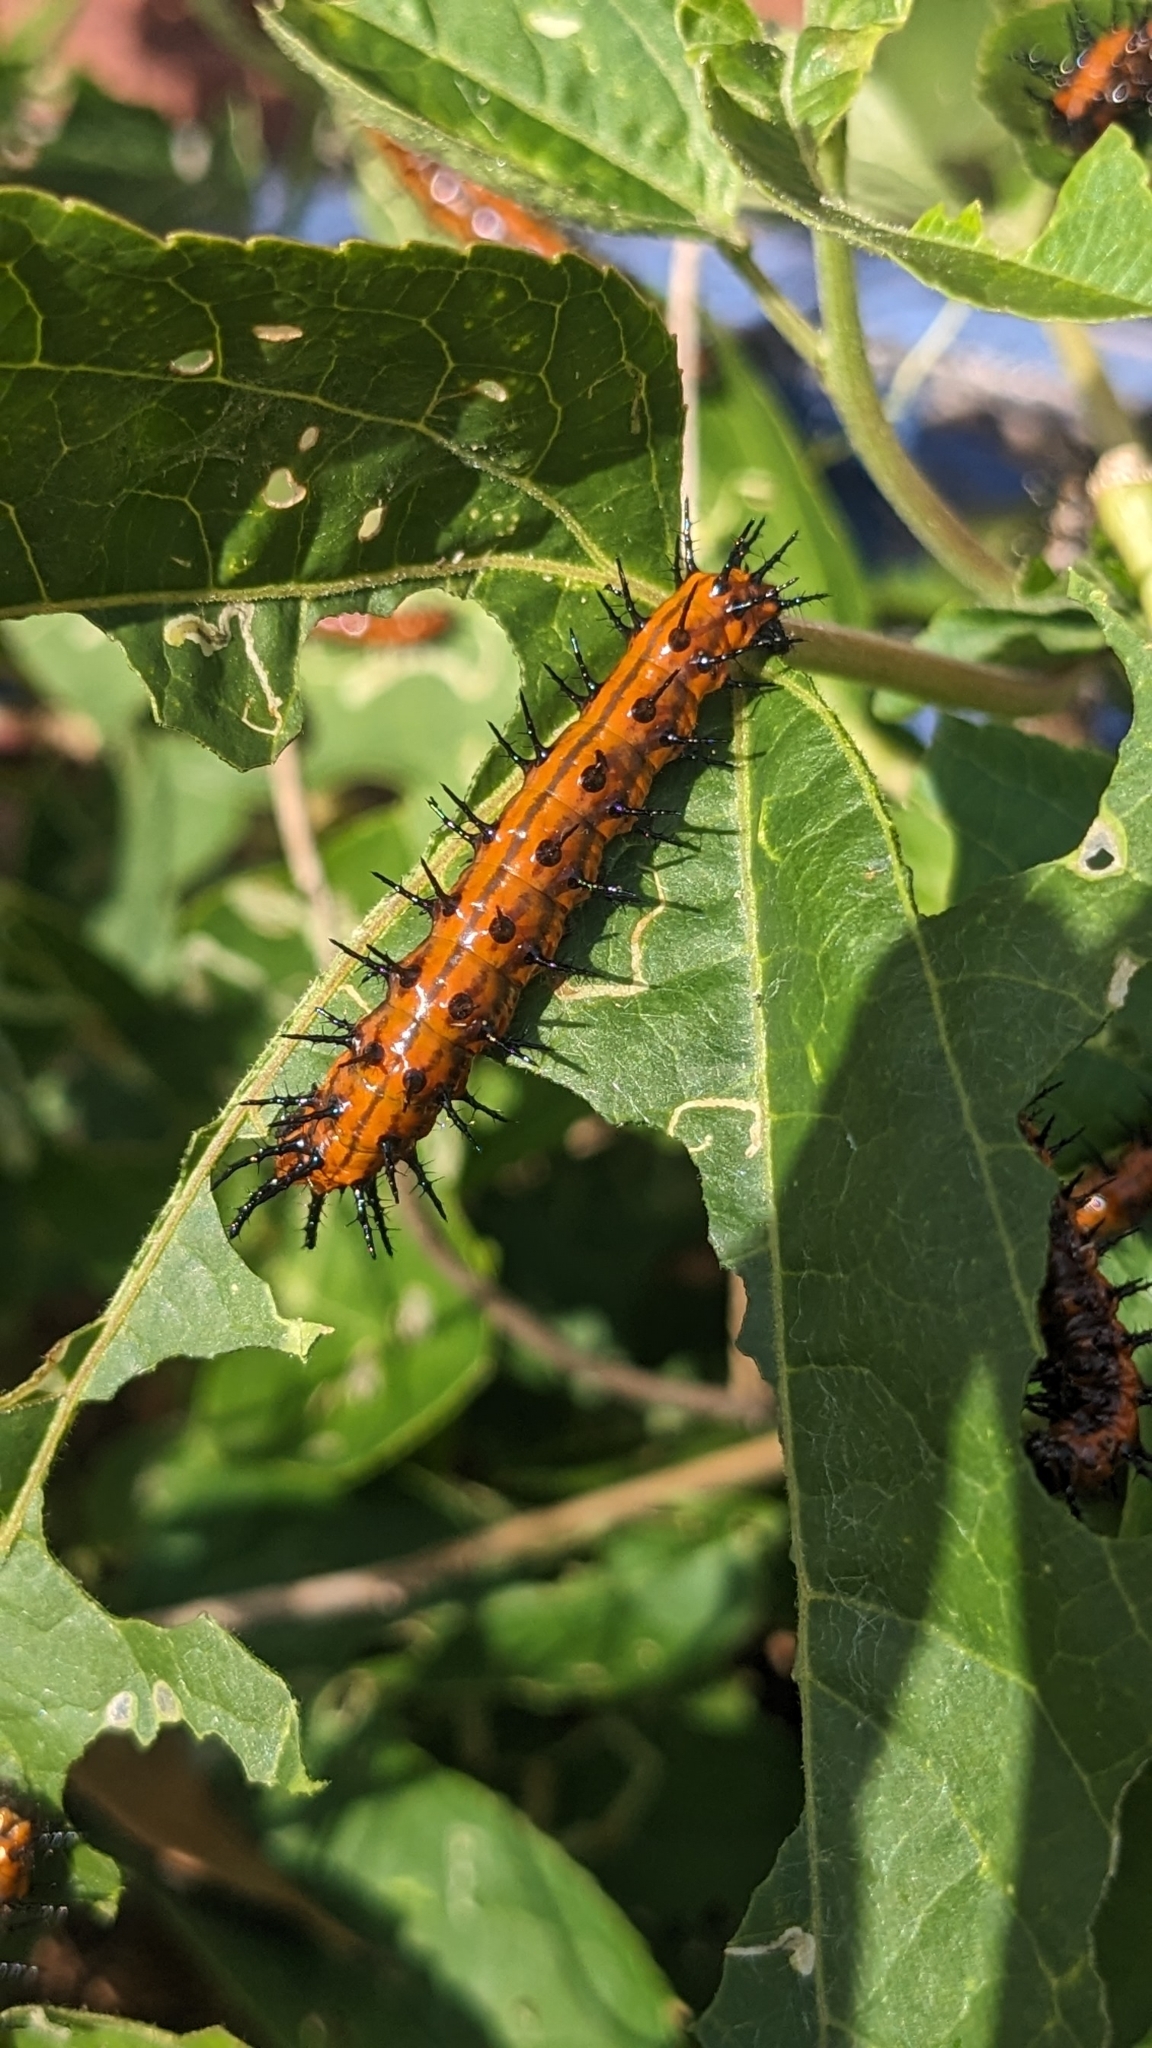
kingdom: Animalia
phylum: Arthropoda
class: Insecta
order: Lepidoptera
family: Nymphalidae
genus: Dione
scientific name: Dione vanillae
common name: Gulf fritillary
